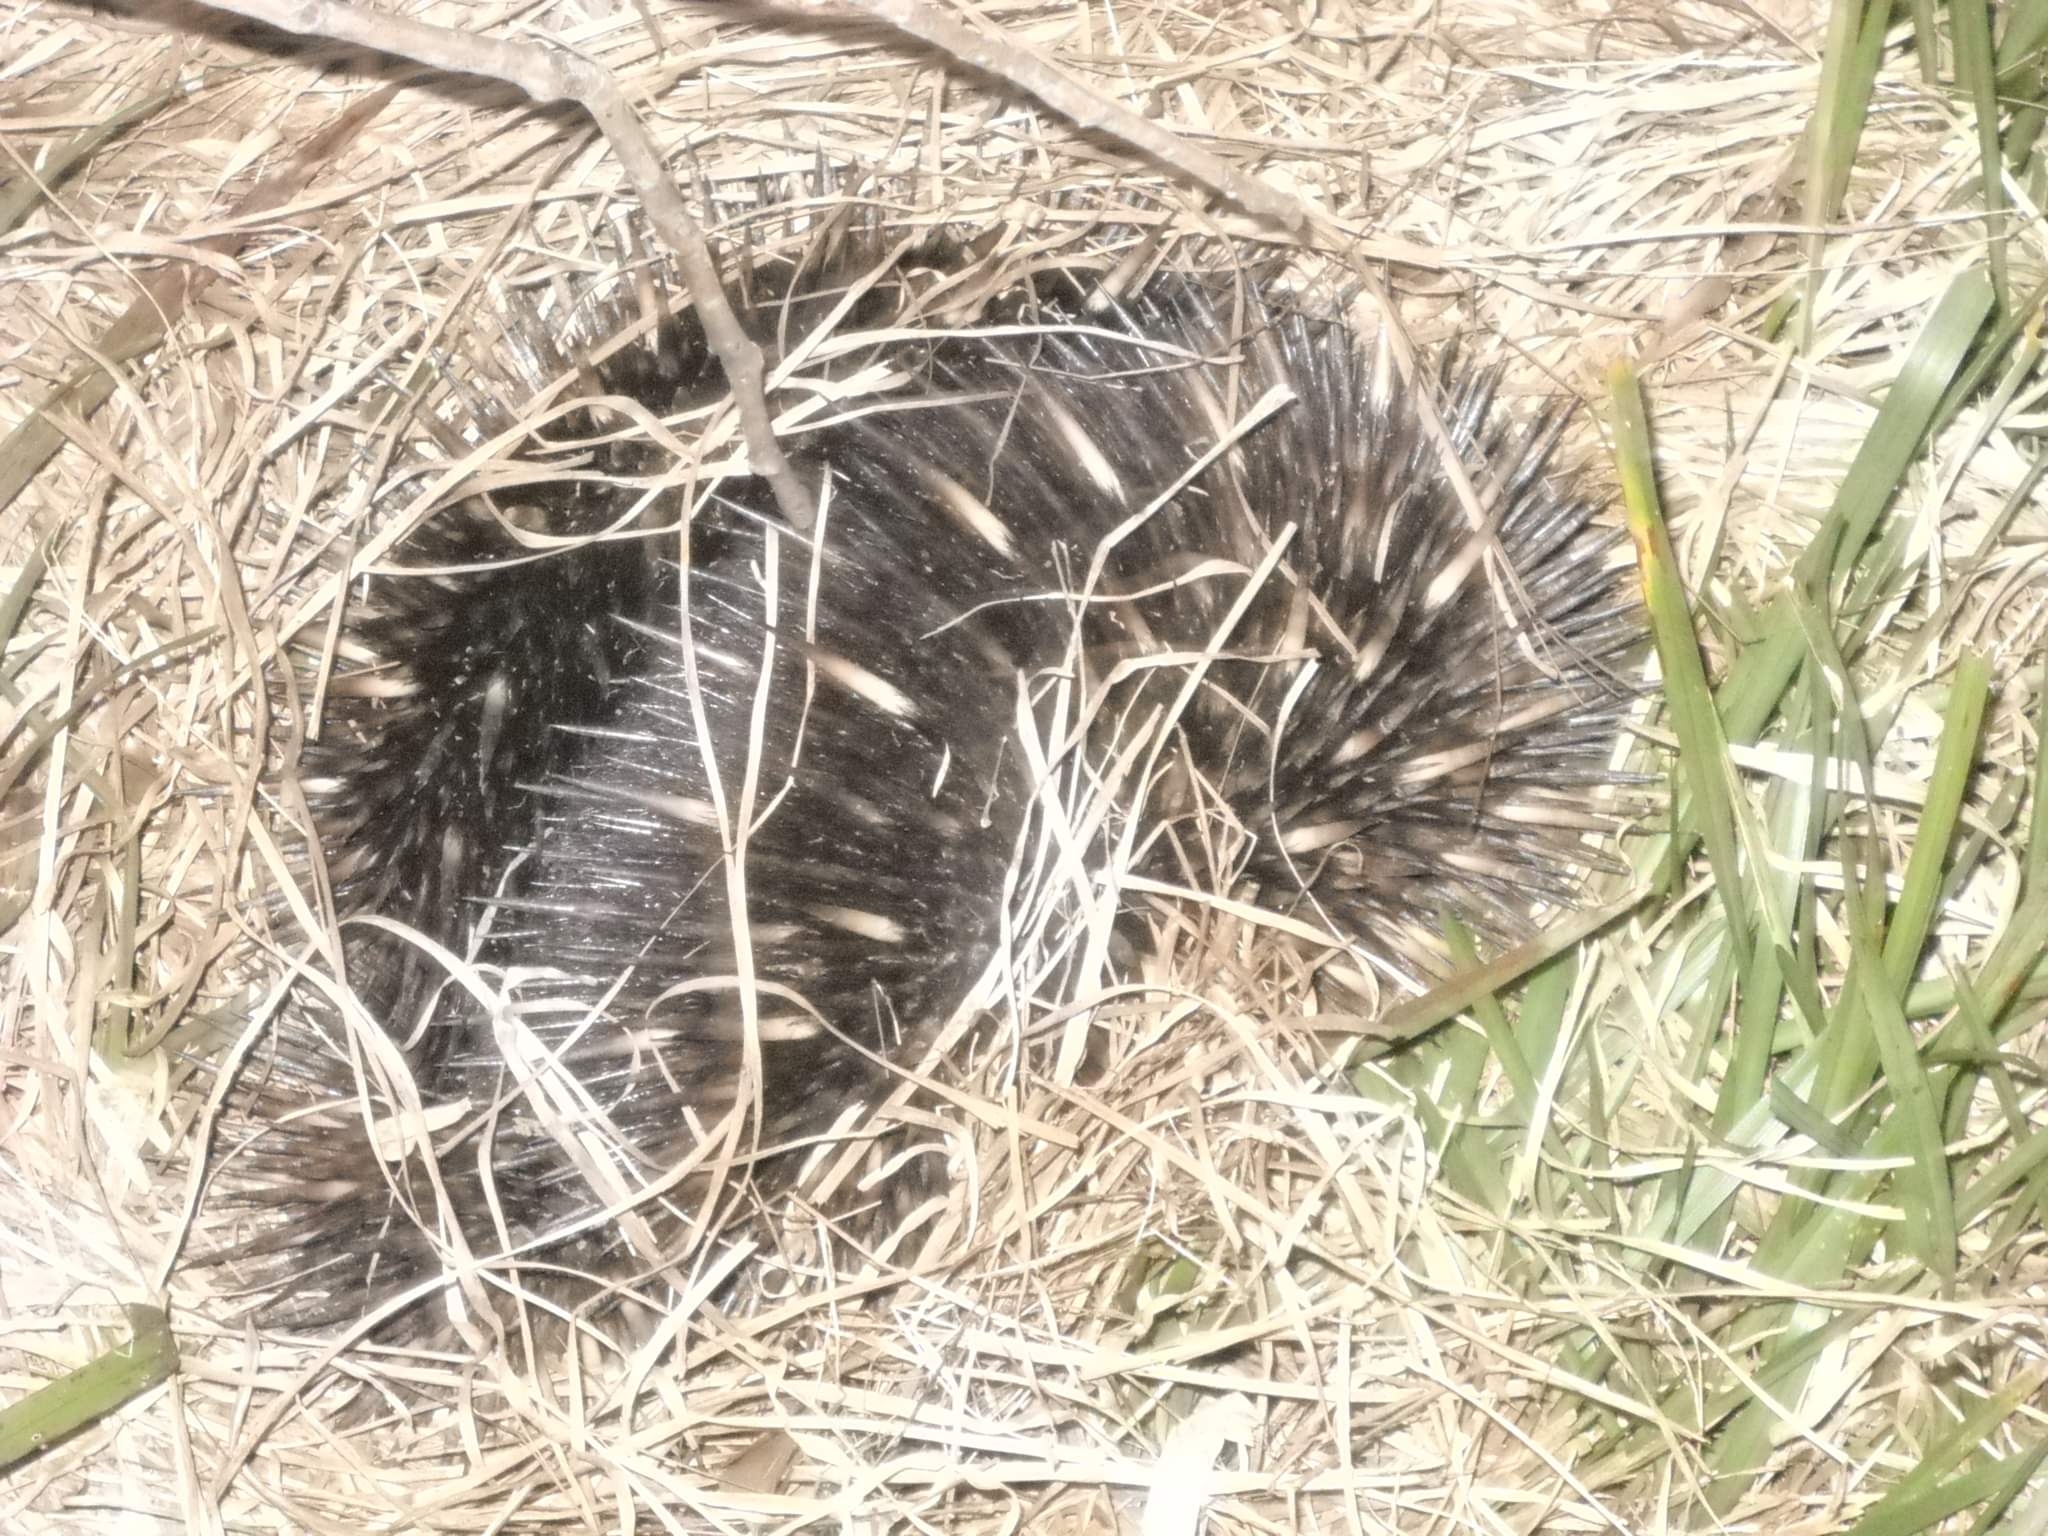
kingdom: Animalia
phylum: Chordata
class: Mammalia
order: Monotremata
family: Tachyglossidae
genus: Tachyglossus
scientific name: Tachyglossus aculeatus
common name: Short-beaked echidna
